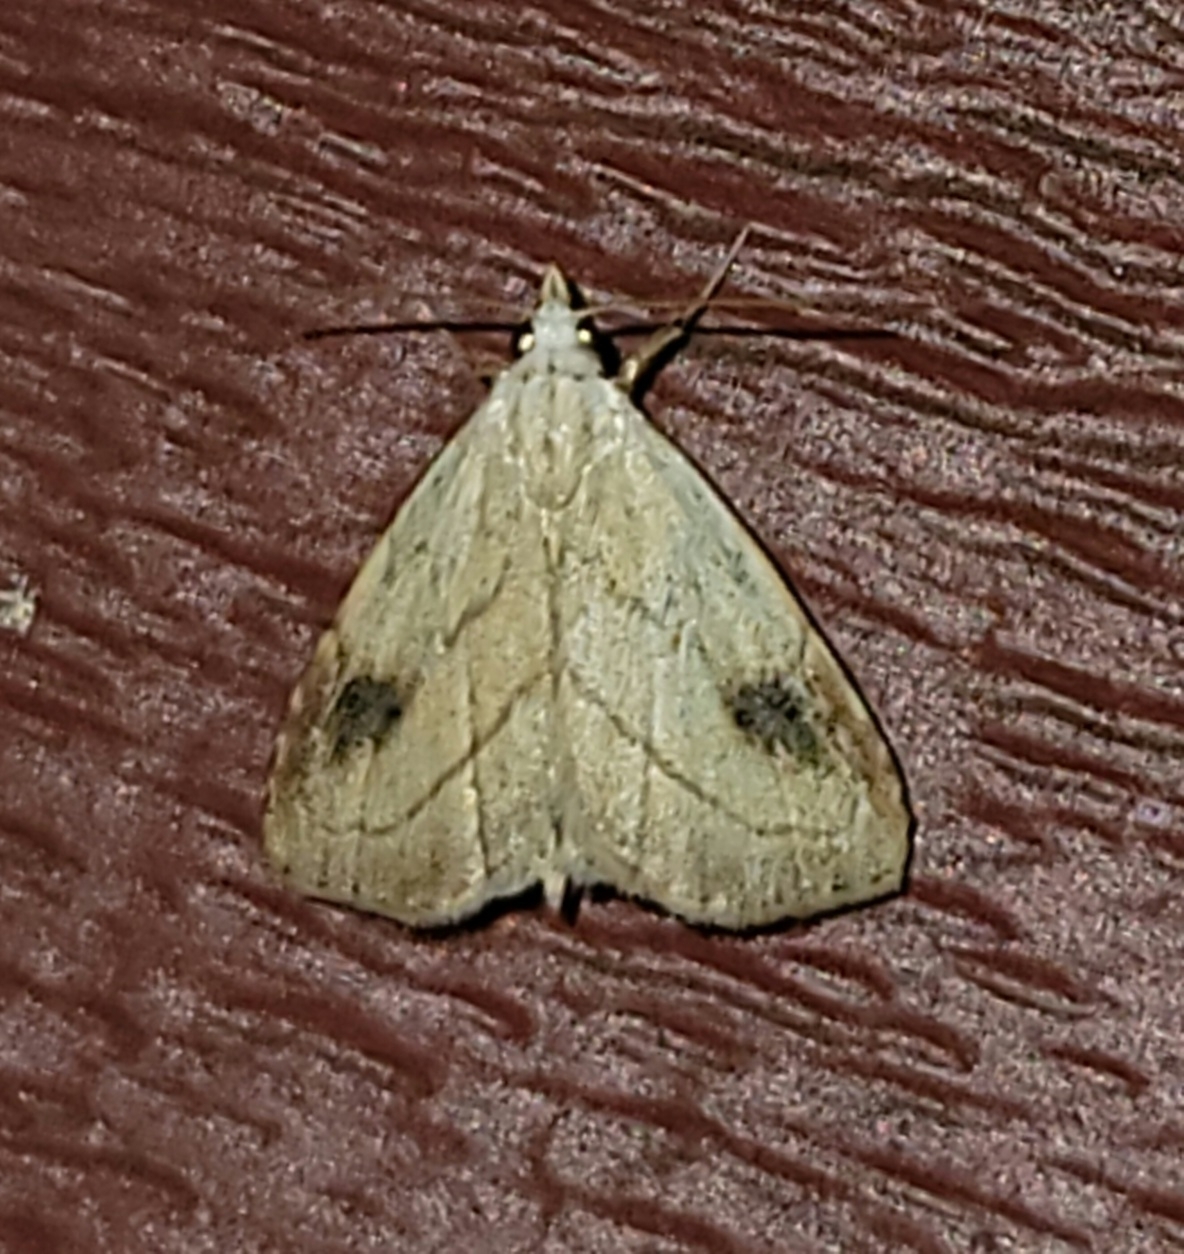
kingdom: Animalia
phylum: Arthropoda
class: Insecta
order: Lepidoptera
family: Erebidae
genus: Rivula
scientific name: Rivula propinqualis
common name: Spotted grass moth
